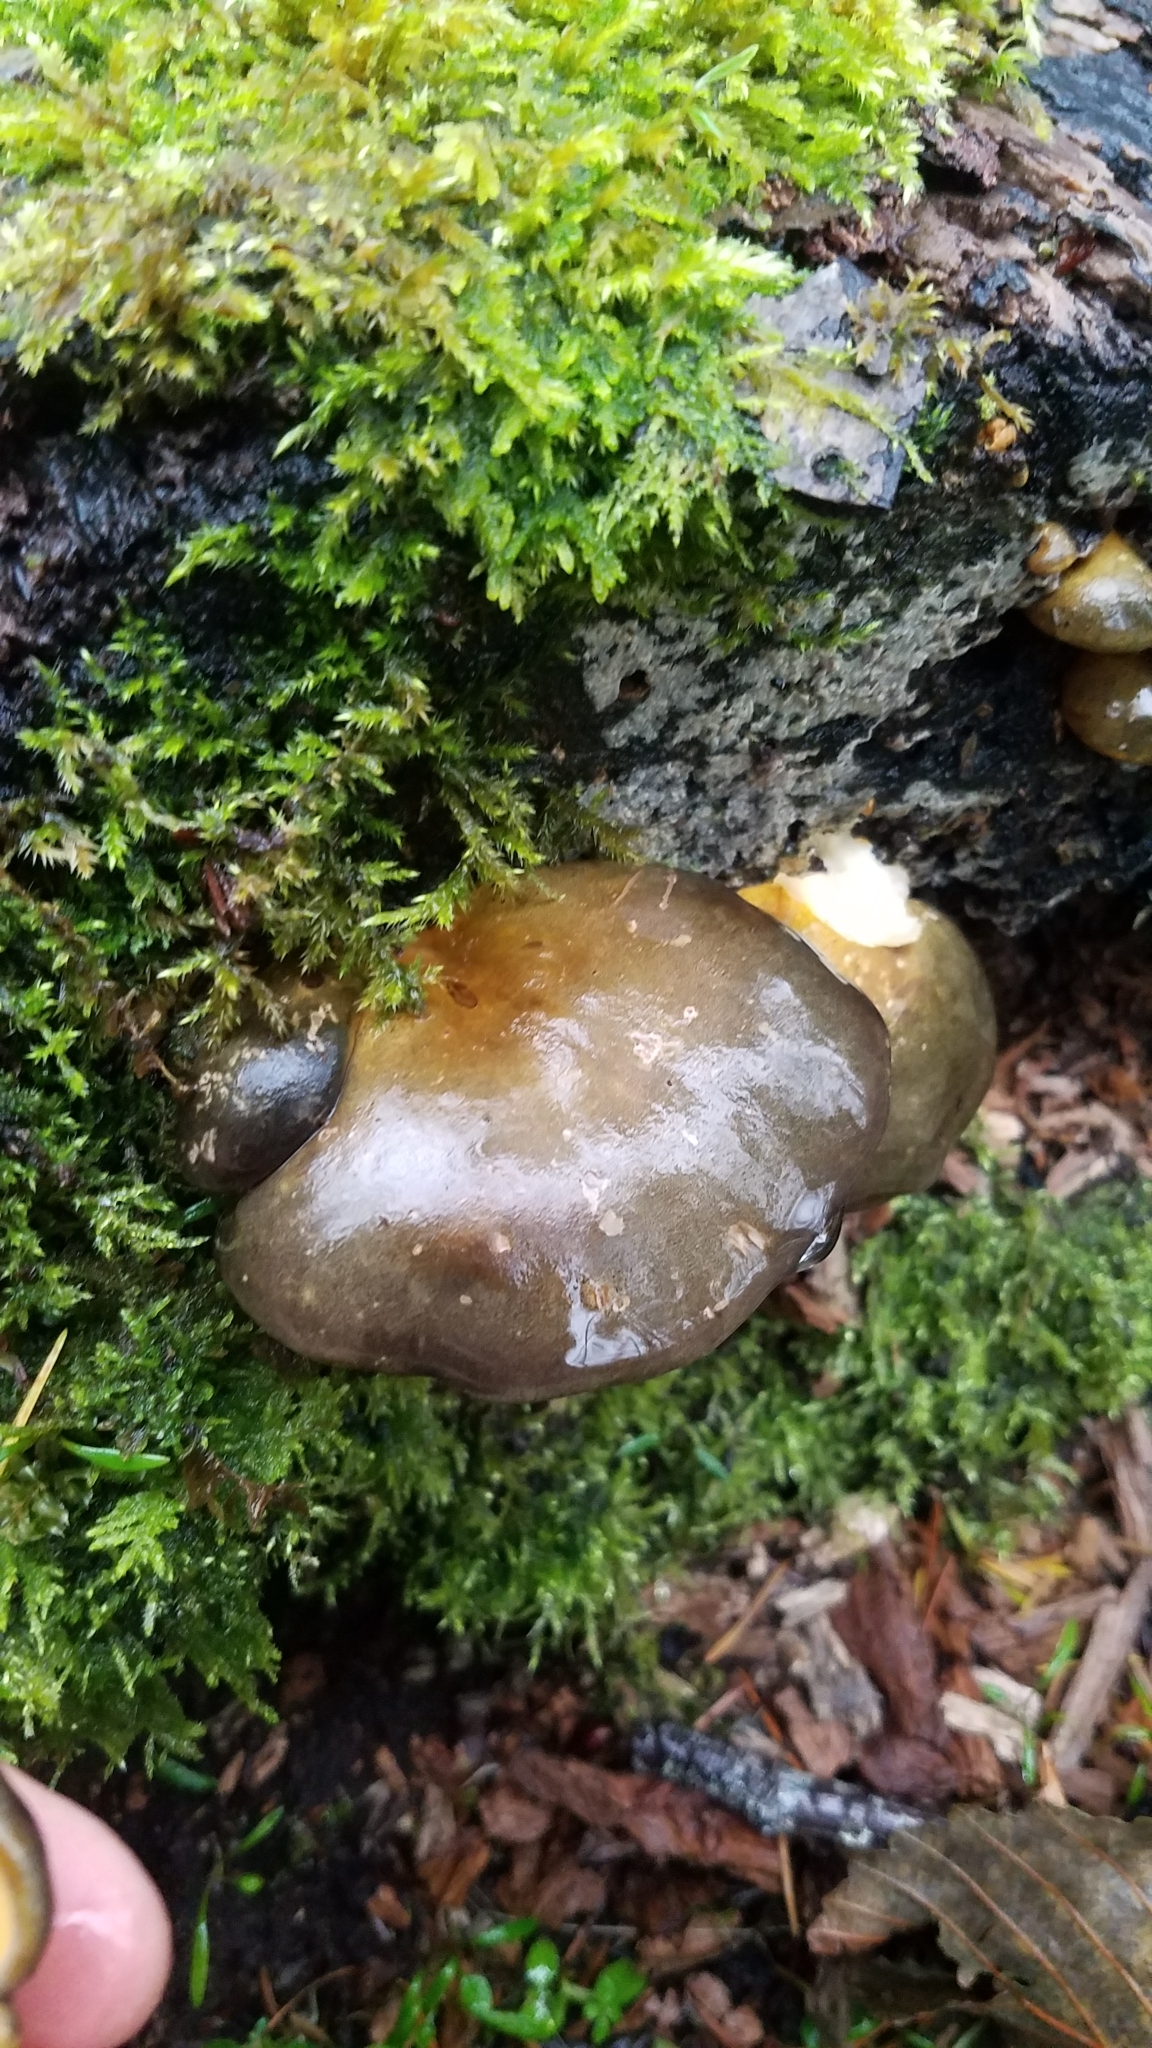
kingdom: Fungi
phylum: Basidiomycota
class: Agaricomycetes
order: Agaricales
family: Sarcomyxaceae
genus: Sarcomyxa
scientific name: Sarcomyxa serotina
